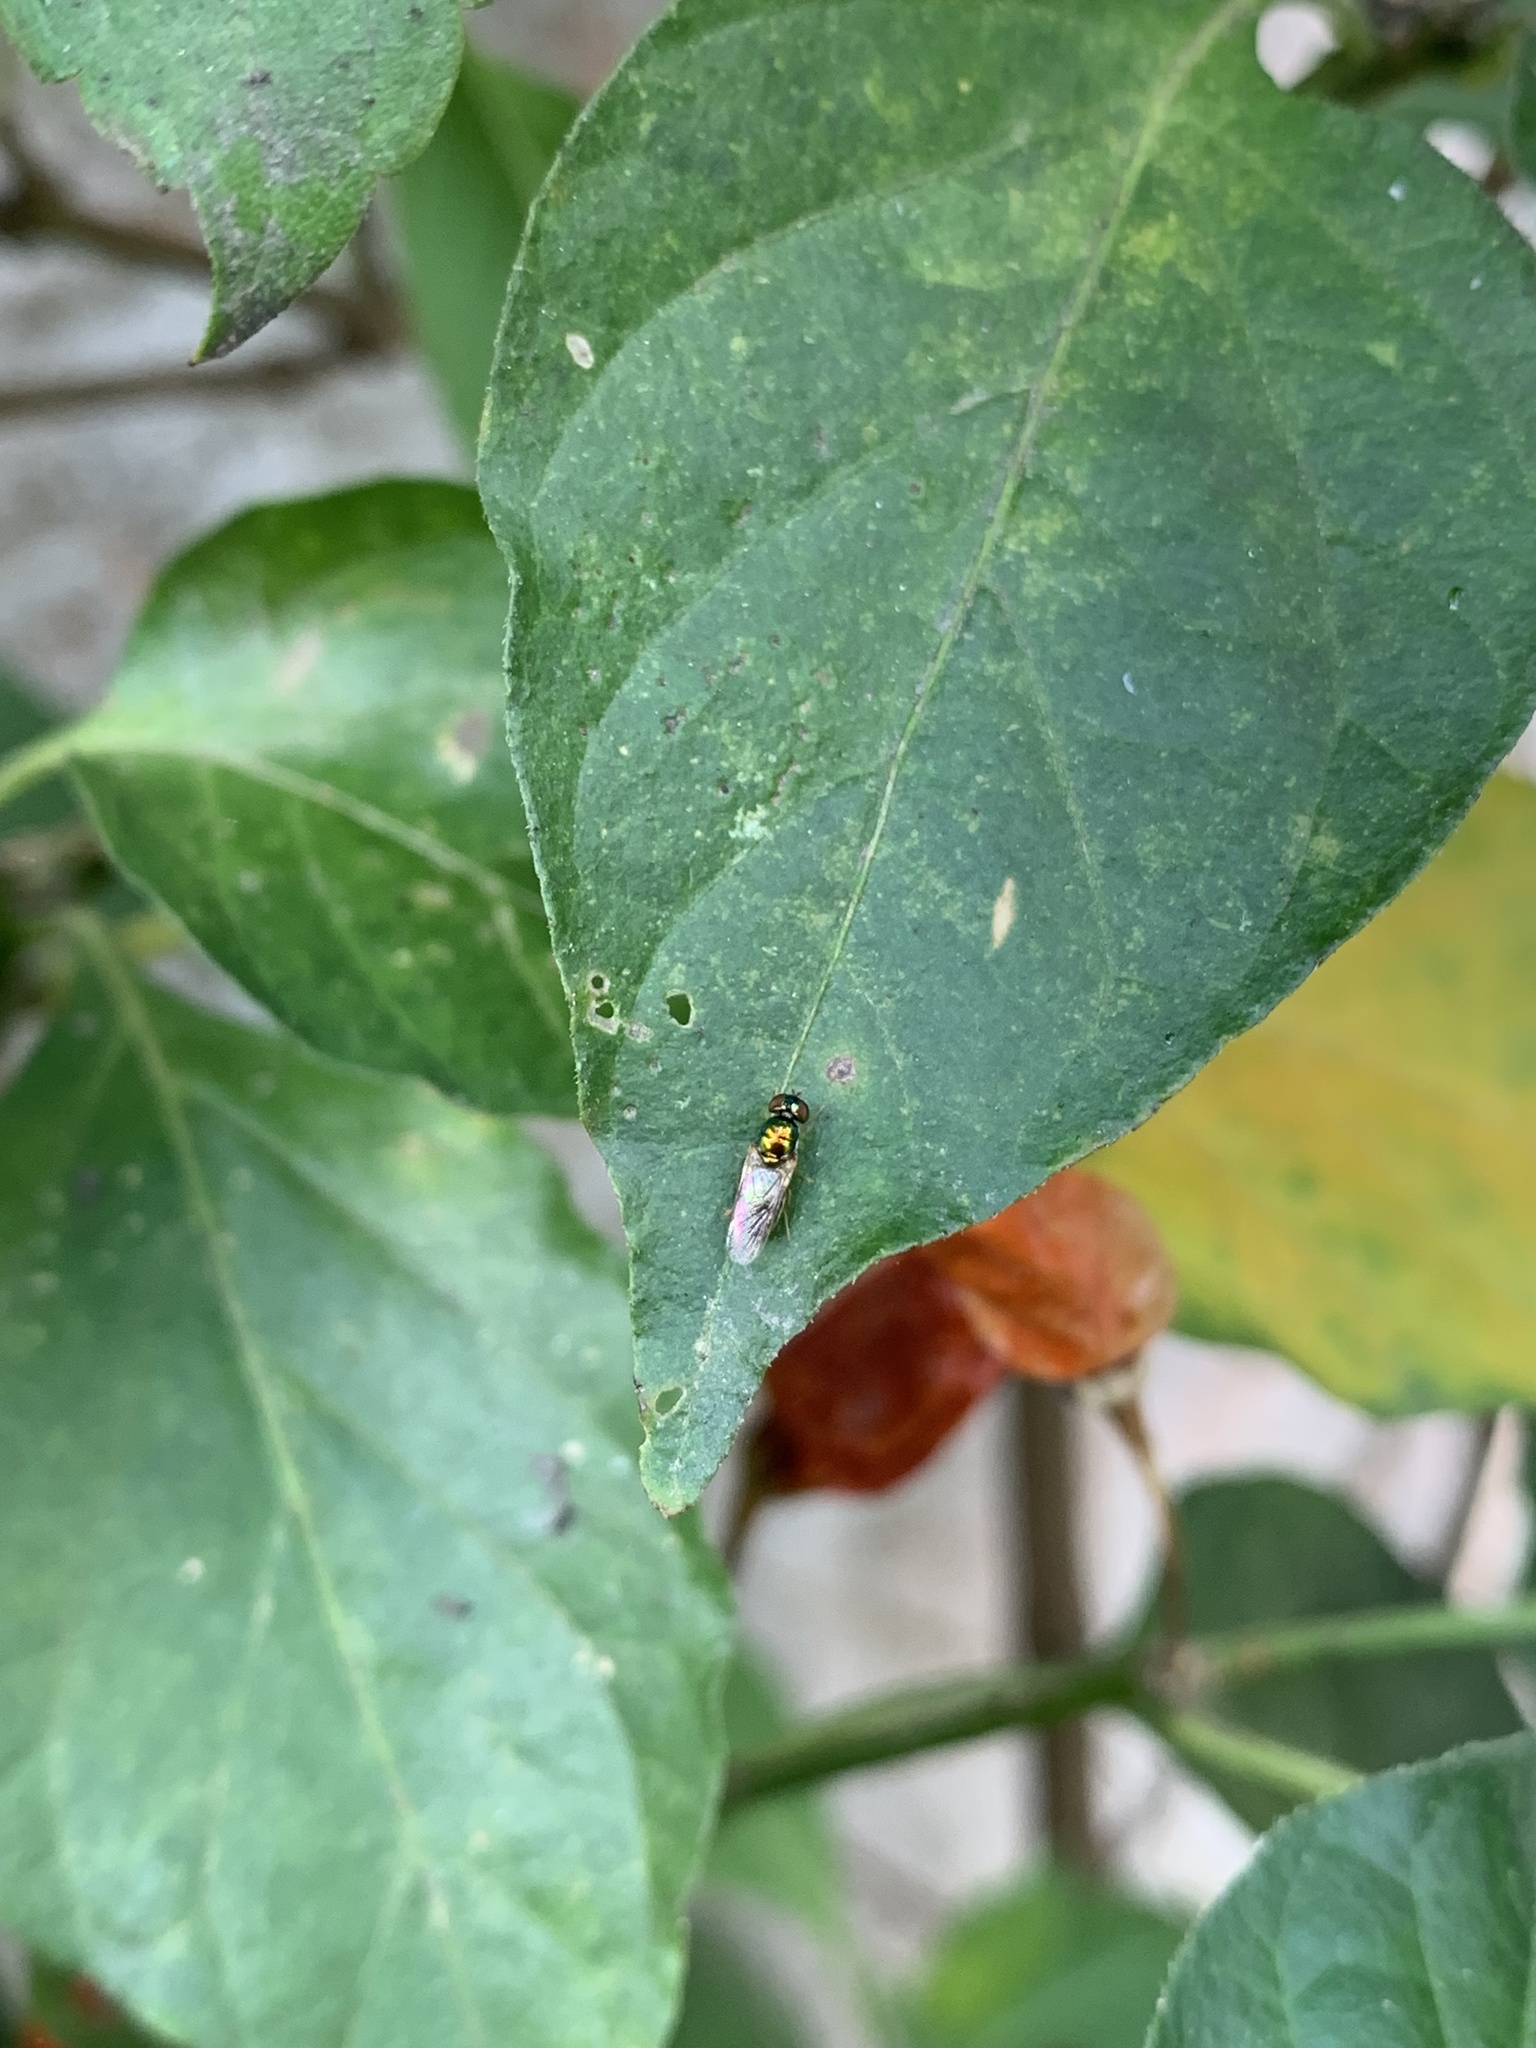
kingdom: Animalia
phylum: Arthropoda
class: Insecta
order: Diptera
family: Stratiomyidae
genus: Microchrysa
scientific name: Microchrysa bicolor
